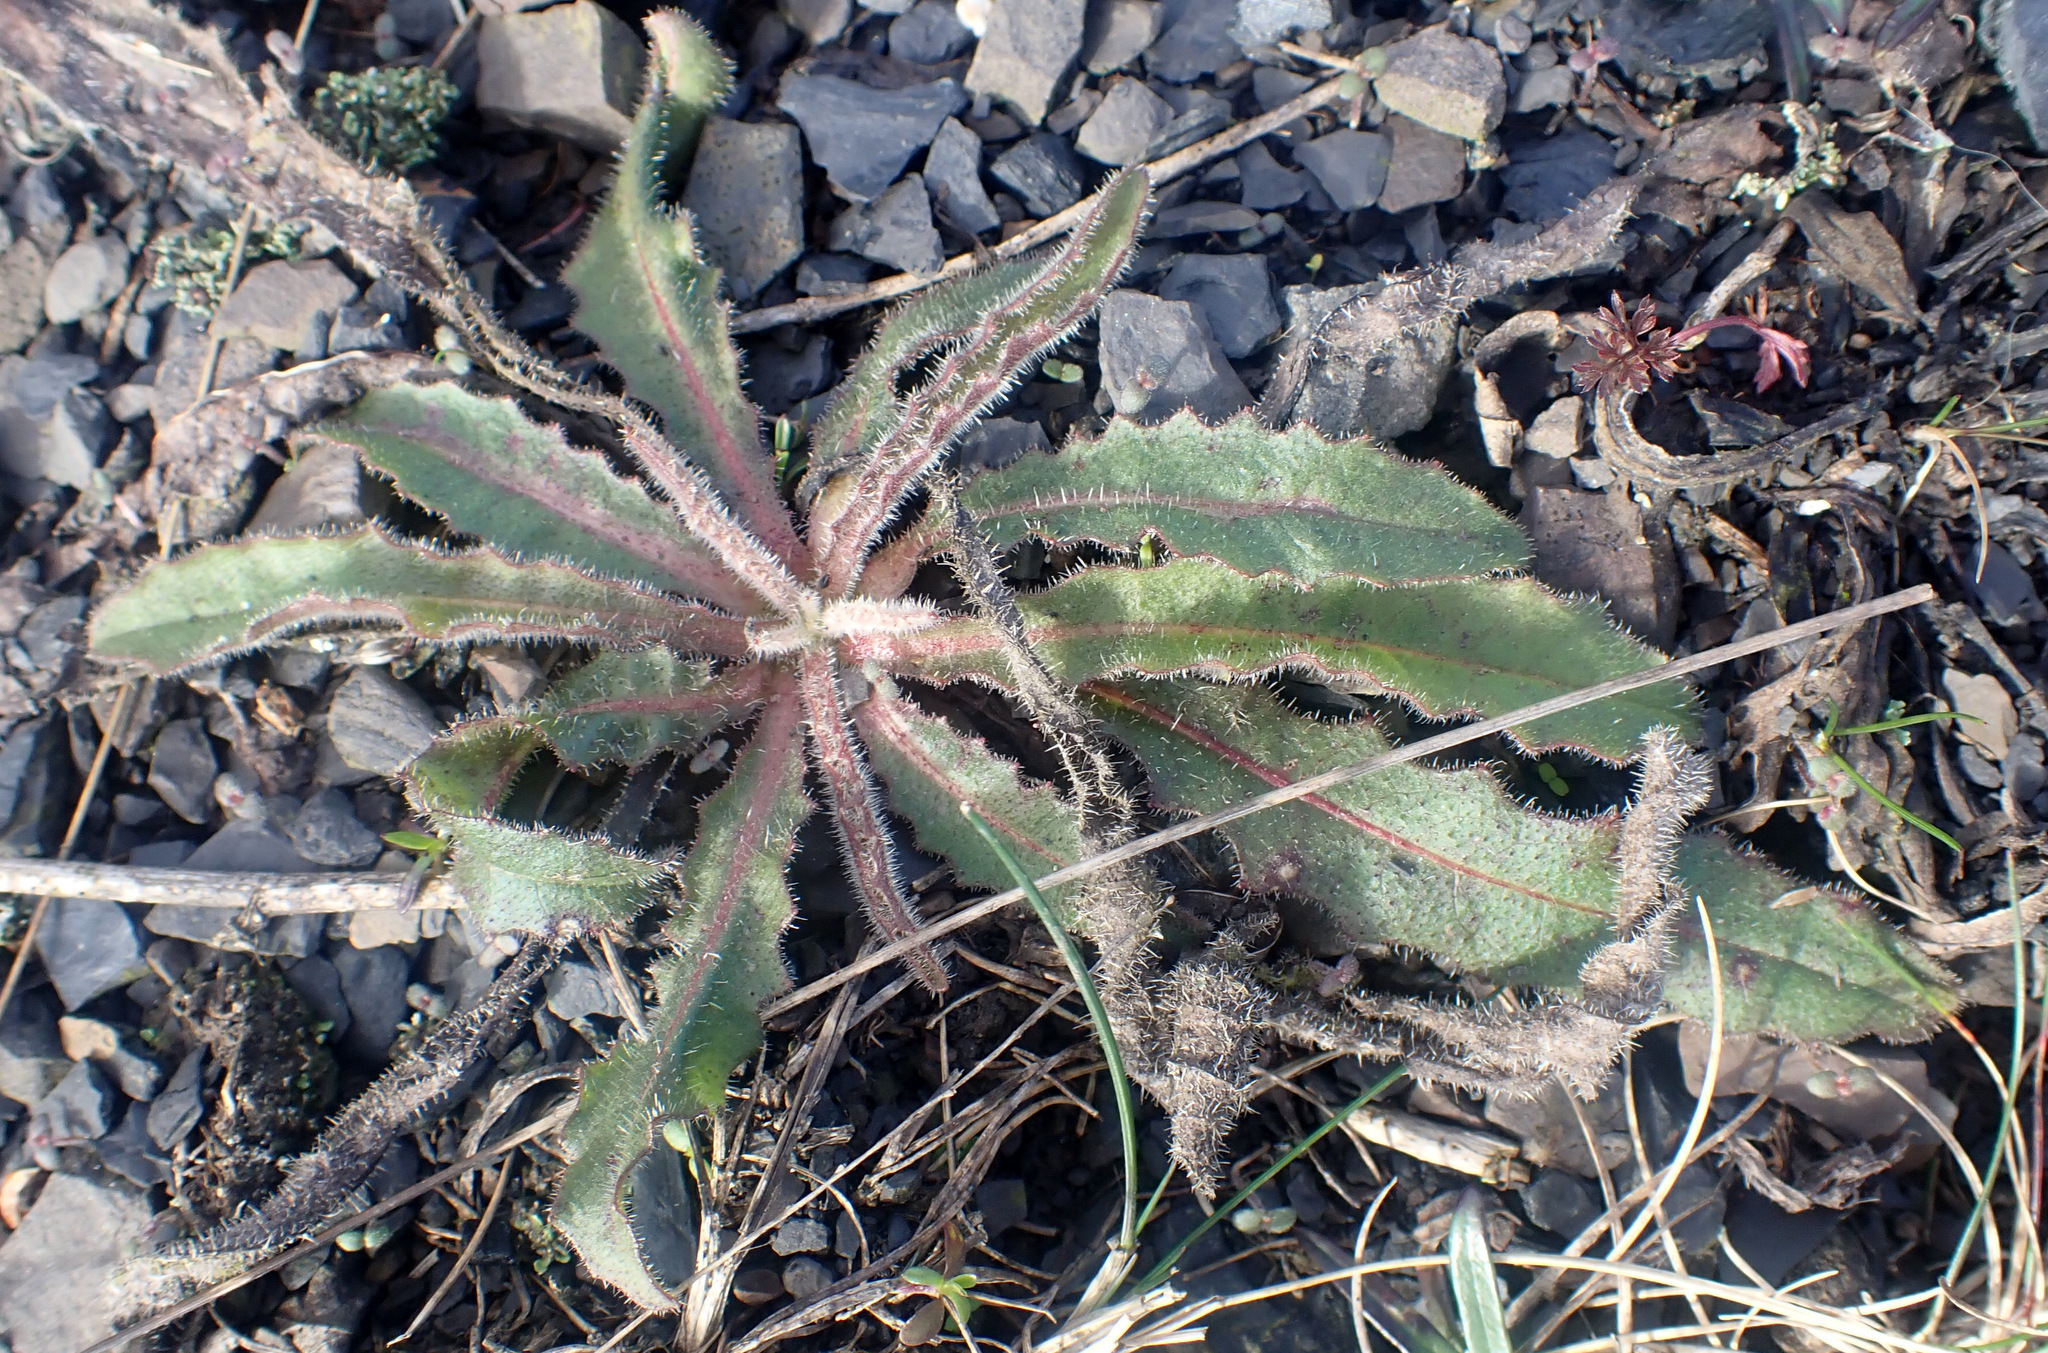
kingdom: Plantae
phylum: Tracheophyta
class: Magnoliopsida
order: Asterales
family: Asteraceae
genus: Picris
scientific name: Picris hieracioides
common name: Hawkweed oxtongue
